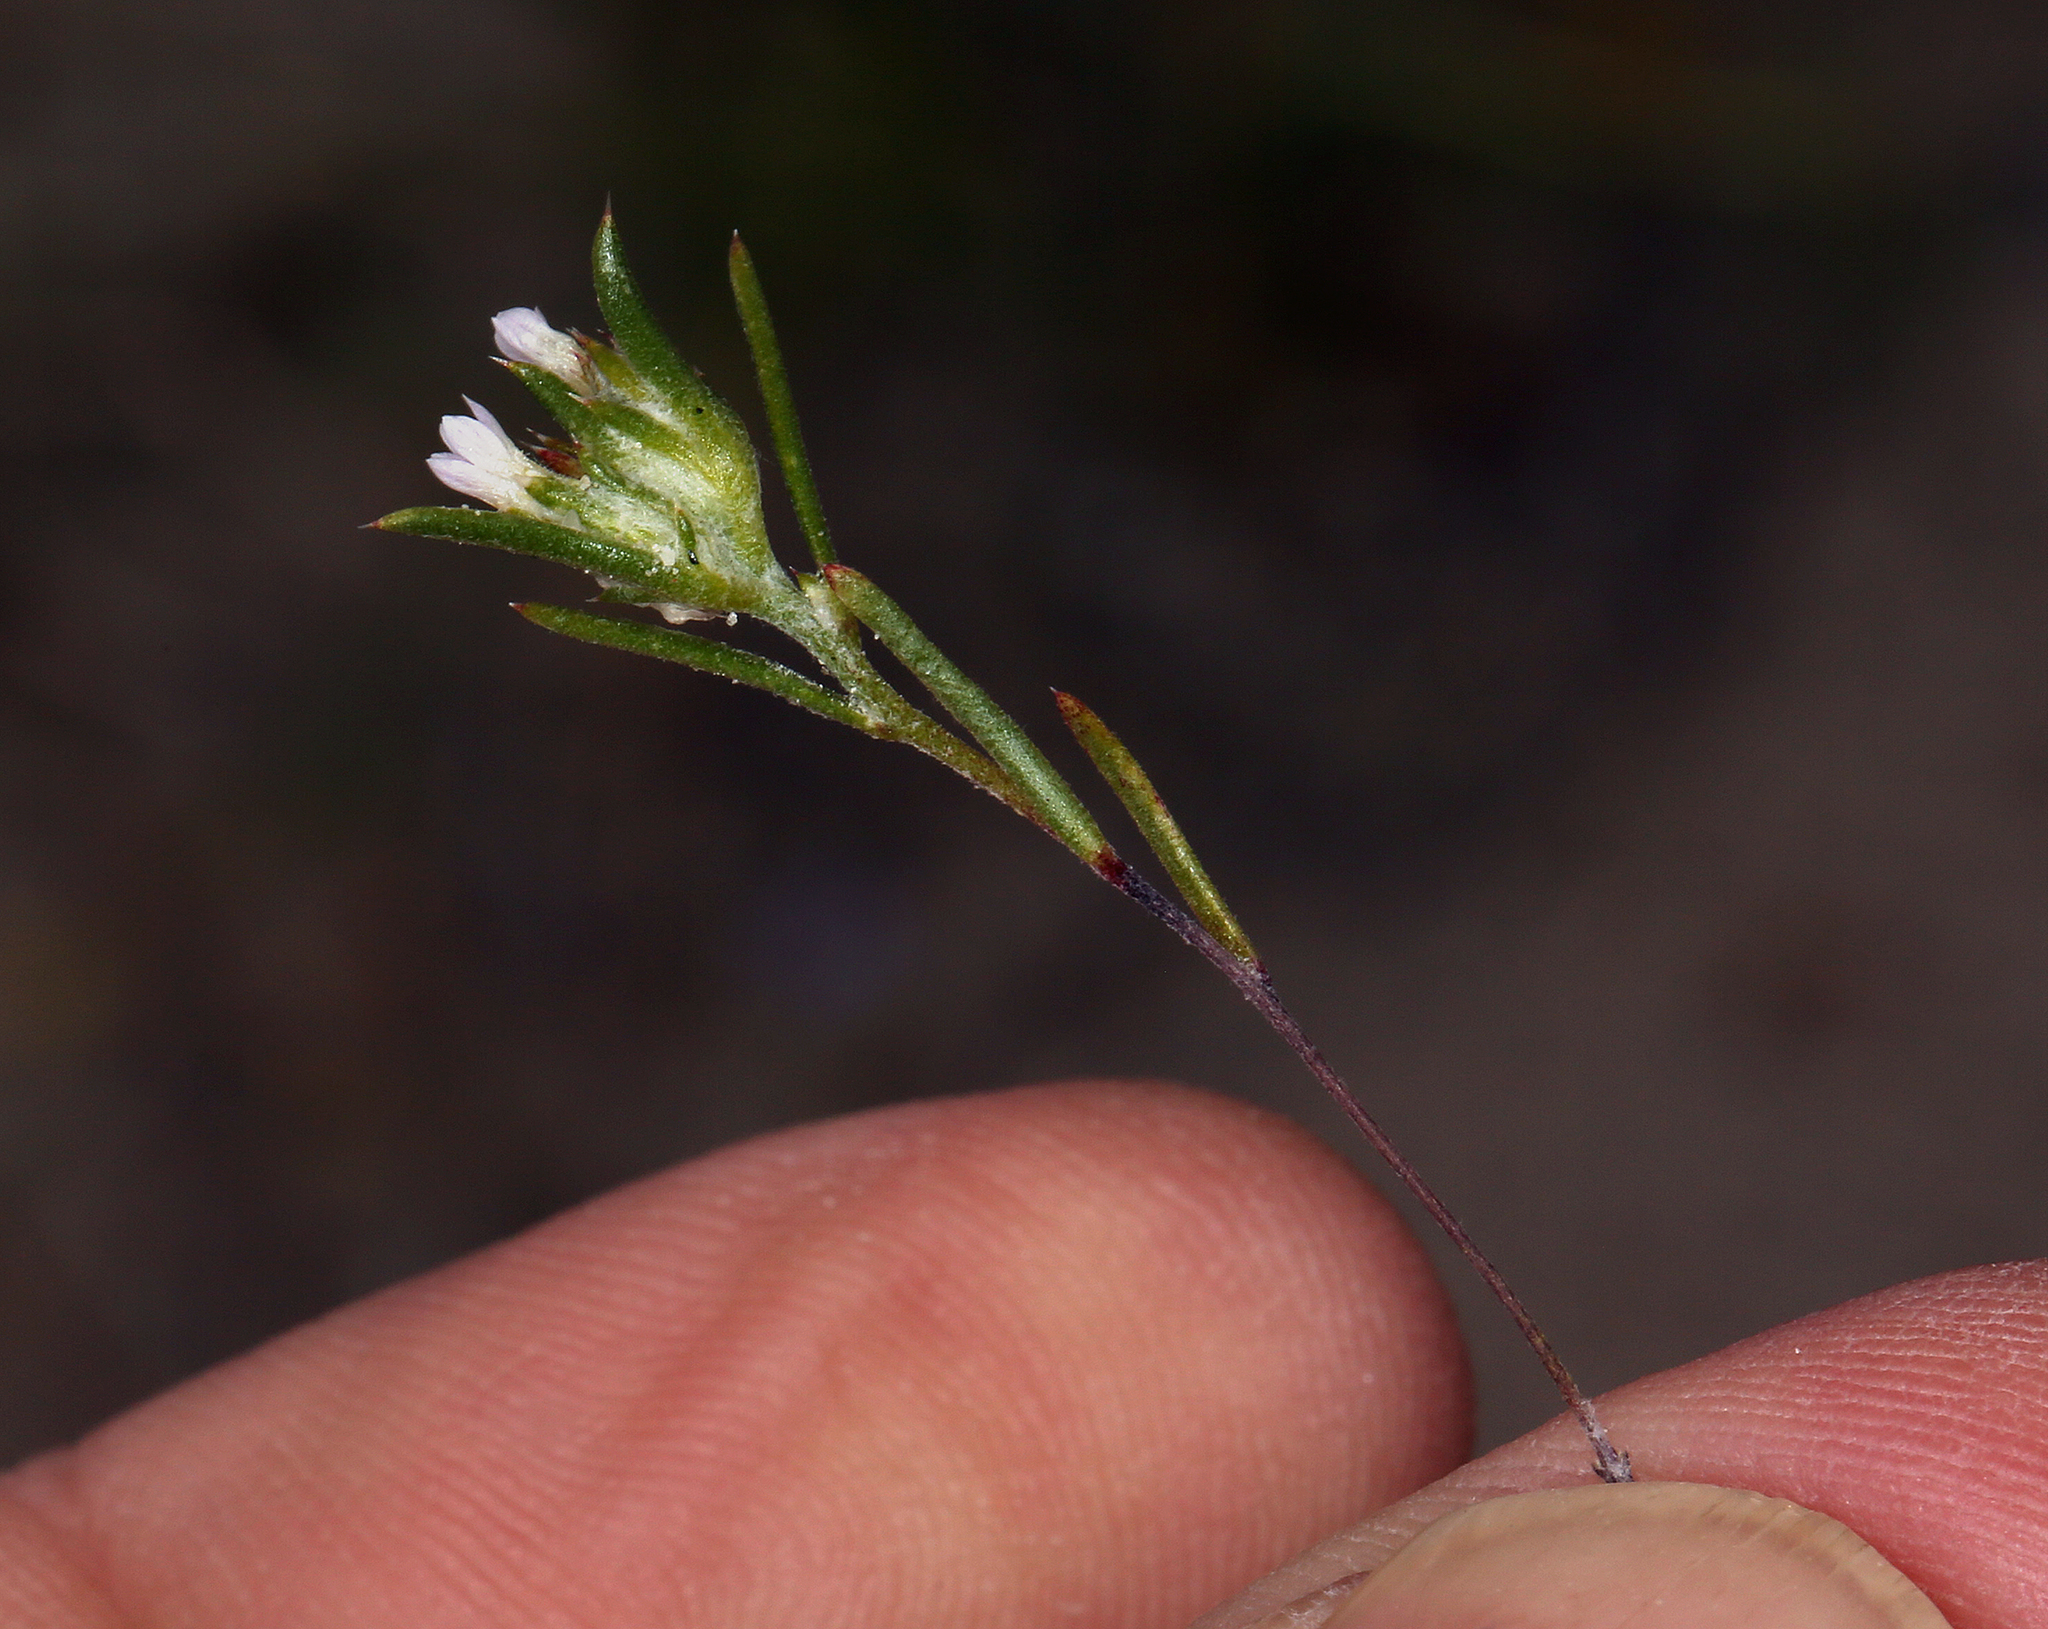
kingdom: Plantae
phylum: Tracheophyta
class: Magnoliopsida
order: Ericales
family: Polemoniaceae
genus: Eriastrum
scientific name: Eriastrum rosamondense
